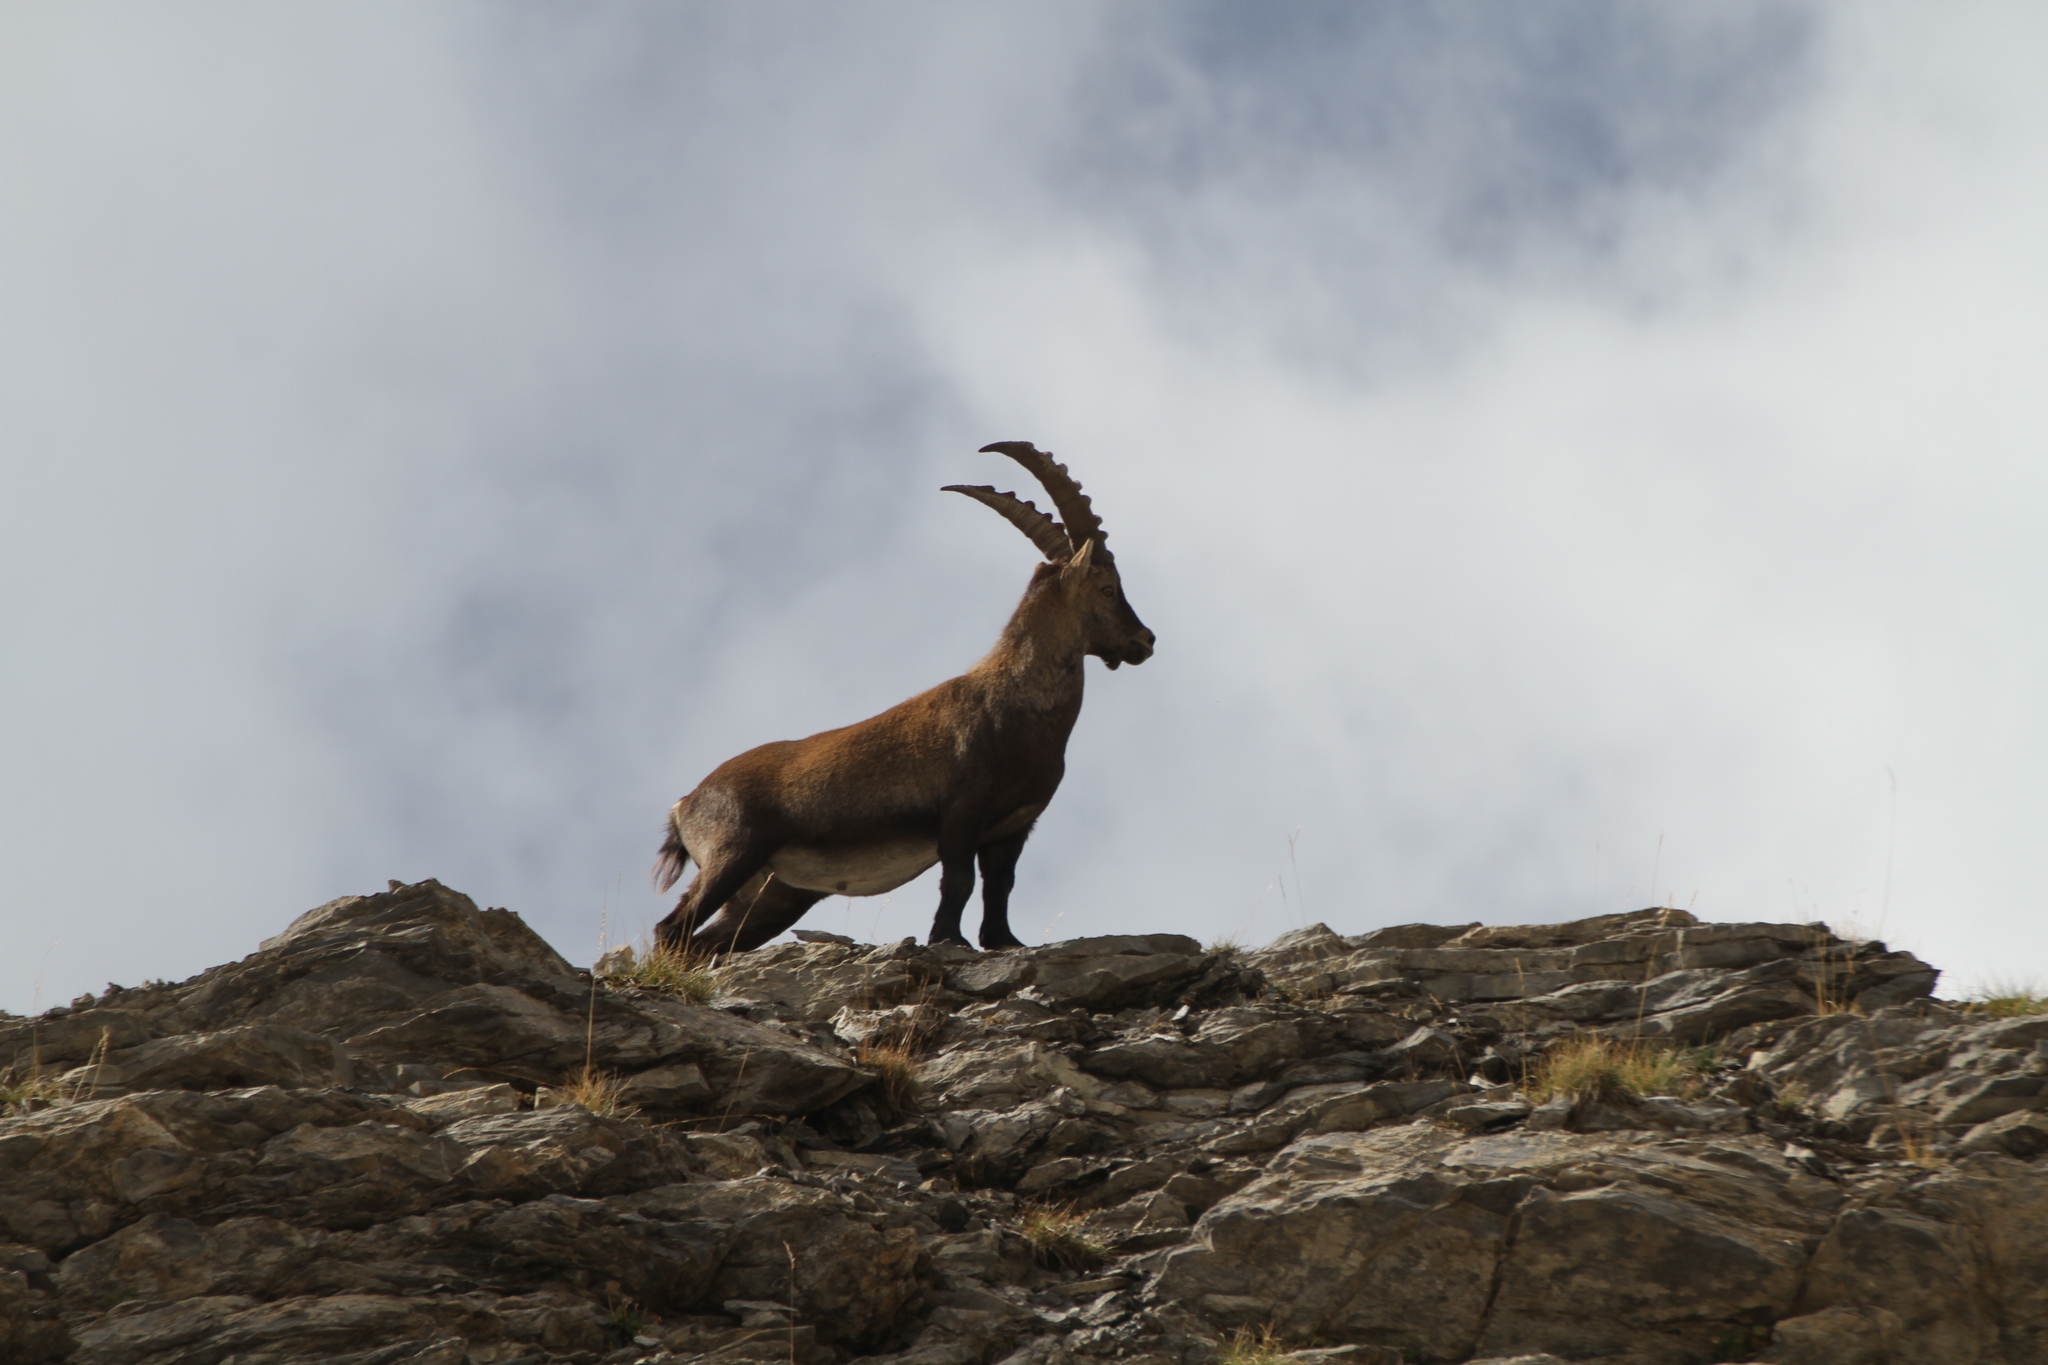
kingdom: Animalia
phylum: Chordata
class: Mammalia
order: Artiodactyla
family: Bovidae
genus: Capra
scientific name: Capra ibex
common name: Alpine ibex
